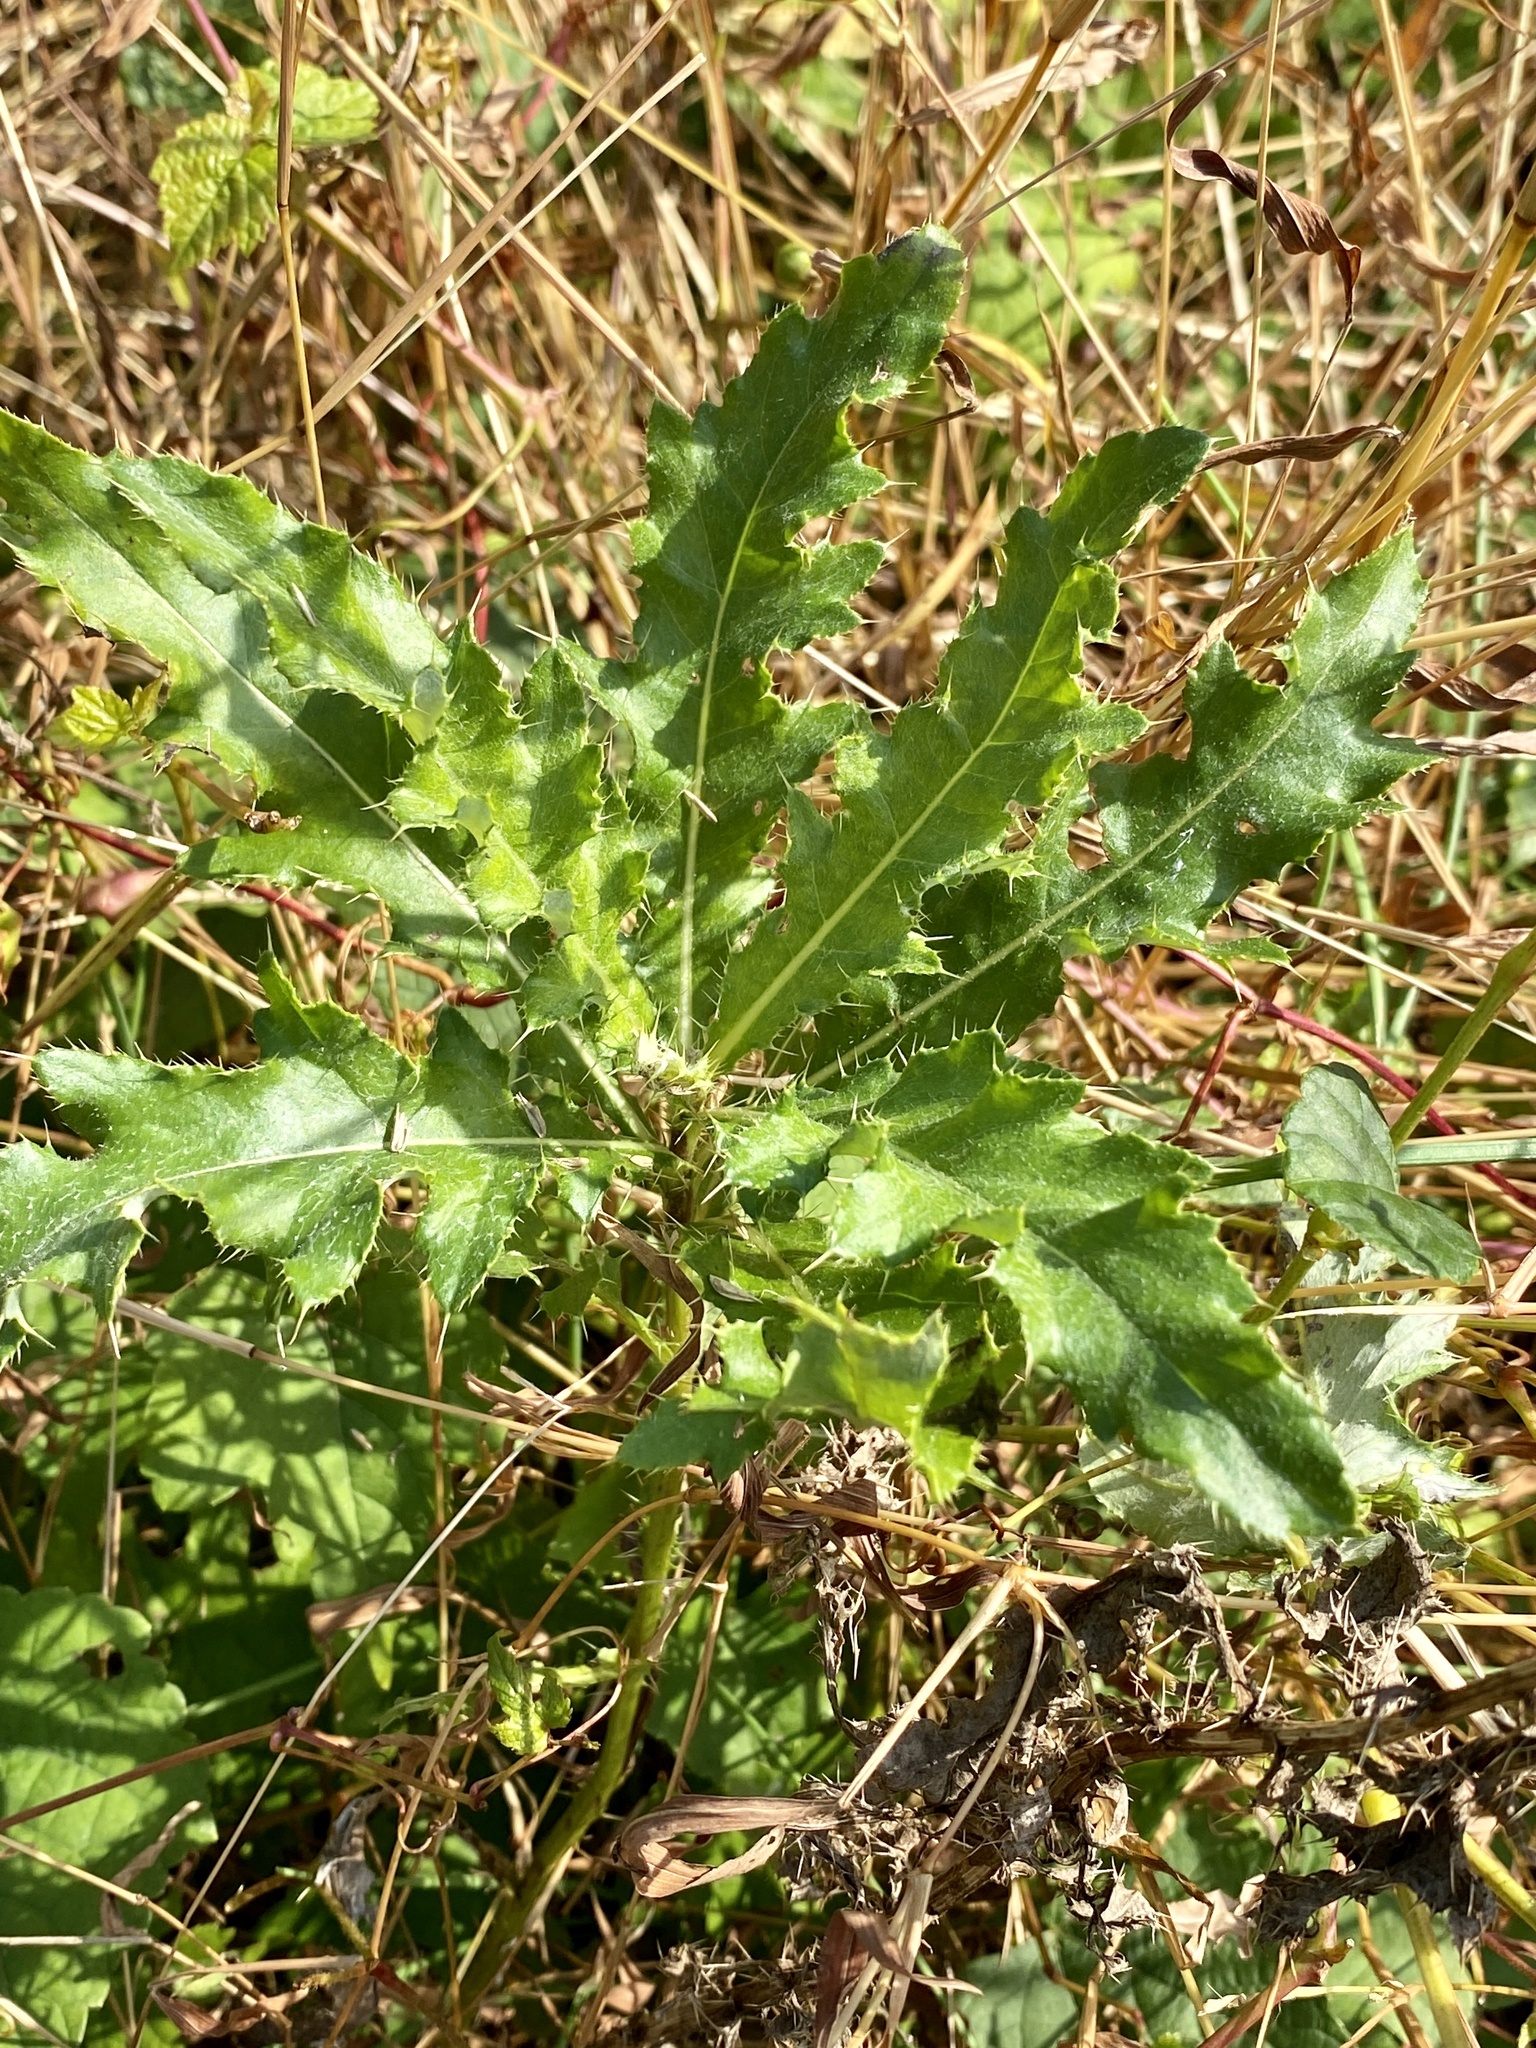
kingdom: Plantae
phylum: Tracheophyta
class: Magnoliopsida
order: Asterales
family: Asteraceae
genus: Cirsium
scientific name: Cirsium arvense
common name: Creeping thistle
